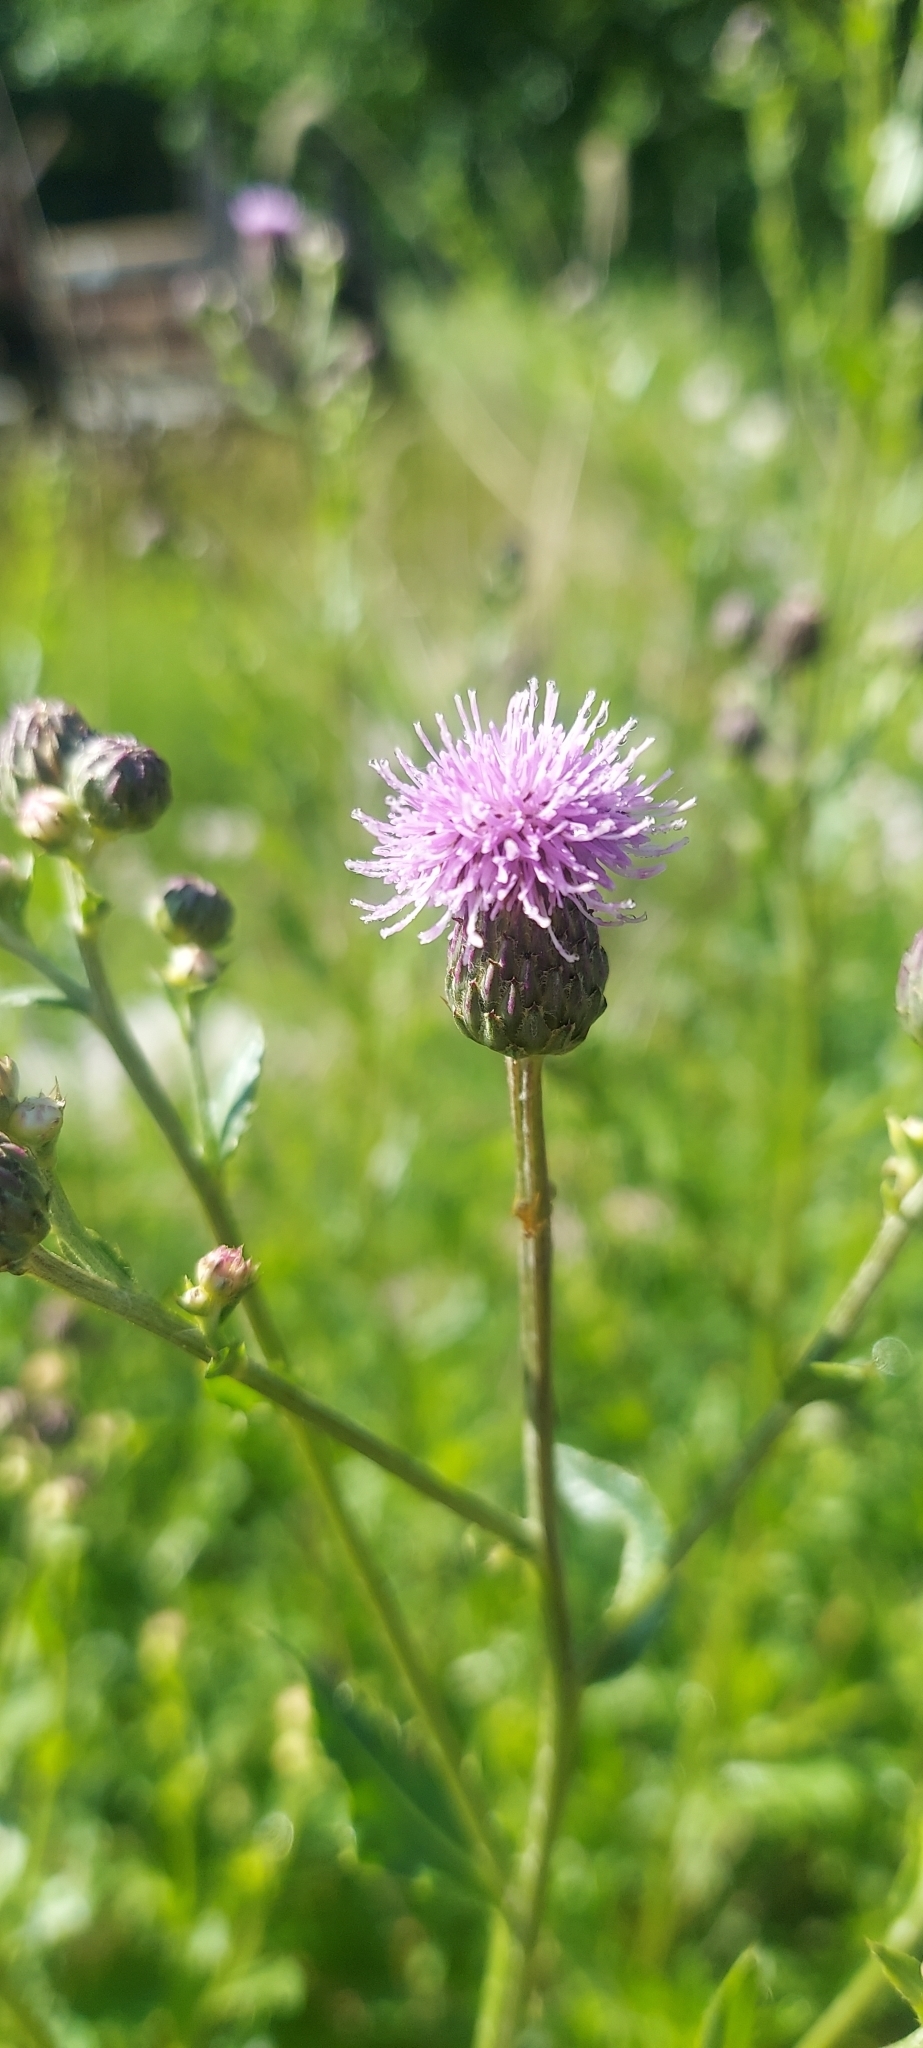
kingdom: Plantae
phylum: Tracheophyta
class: Magnoliopsida
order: Asterales
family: Asteraceae
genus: Cirsium
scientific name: Cirsium arvense
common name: Creeping thistle
